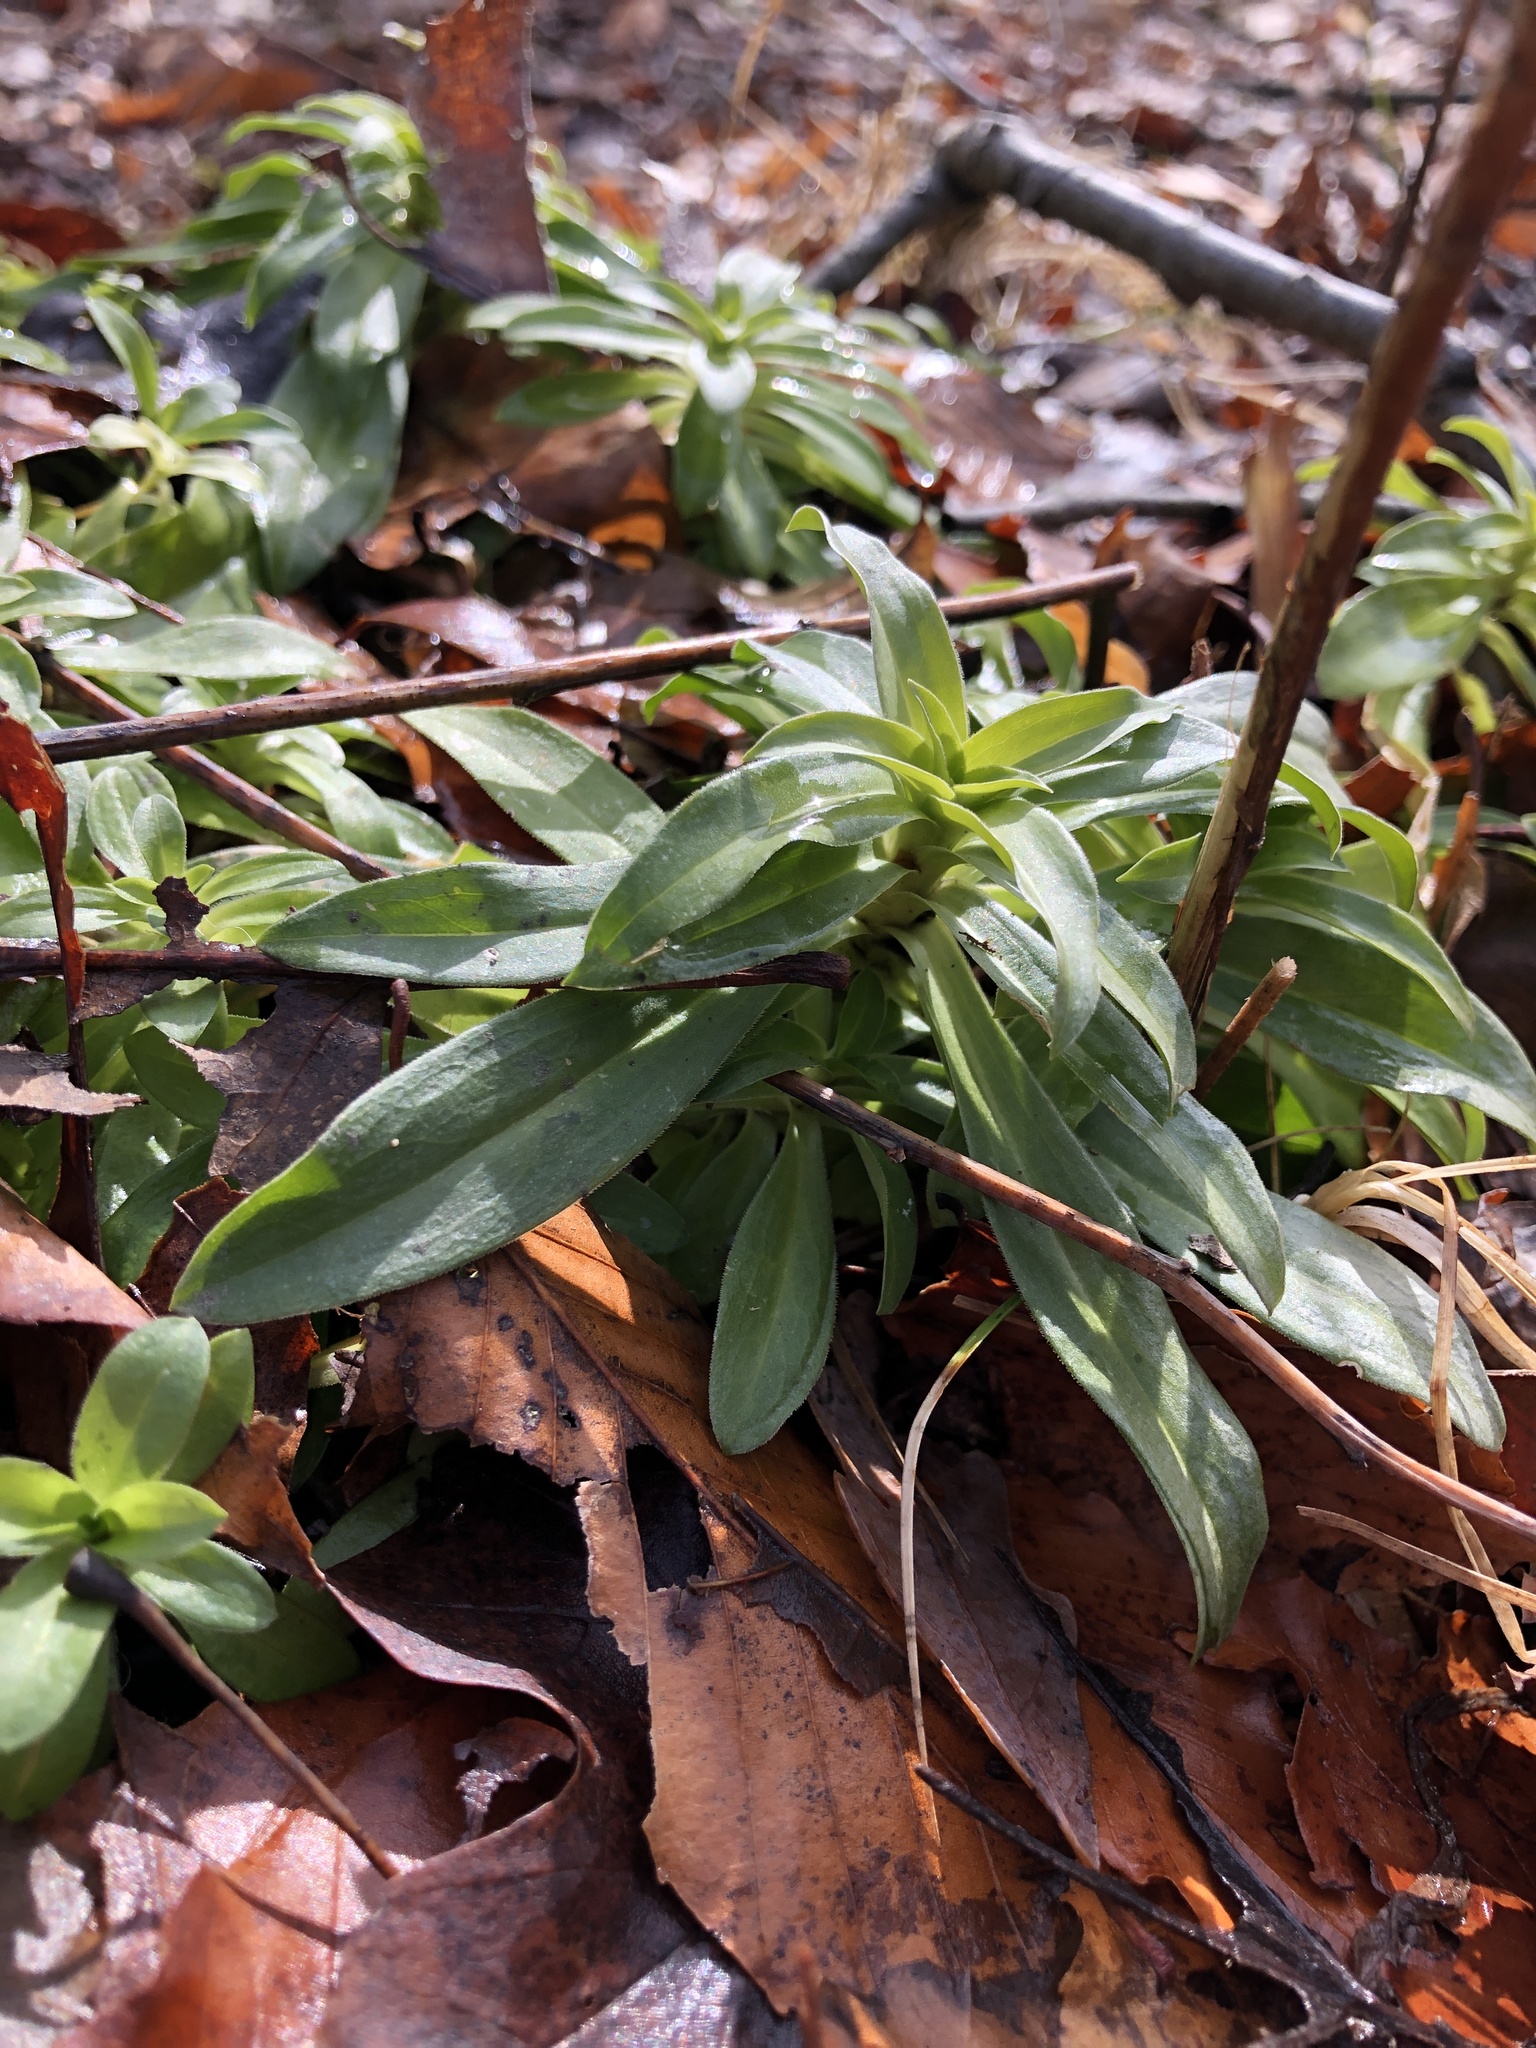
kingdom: Plantae
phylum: Tracheophyta
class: Magnoliopsida
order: Caryophyllales
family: Caryophyllaceae
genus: Dianthus
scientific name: Dianthus barbatus
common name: Sweet-william
